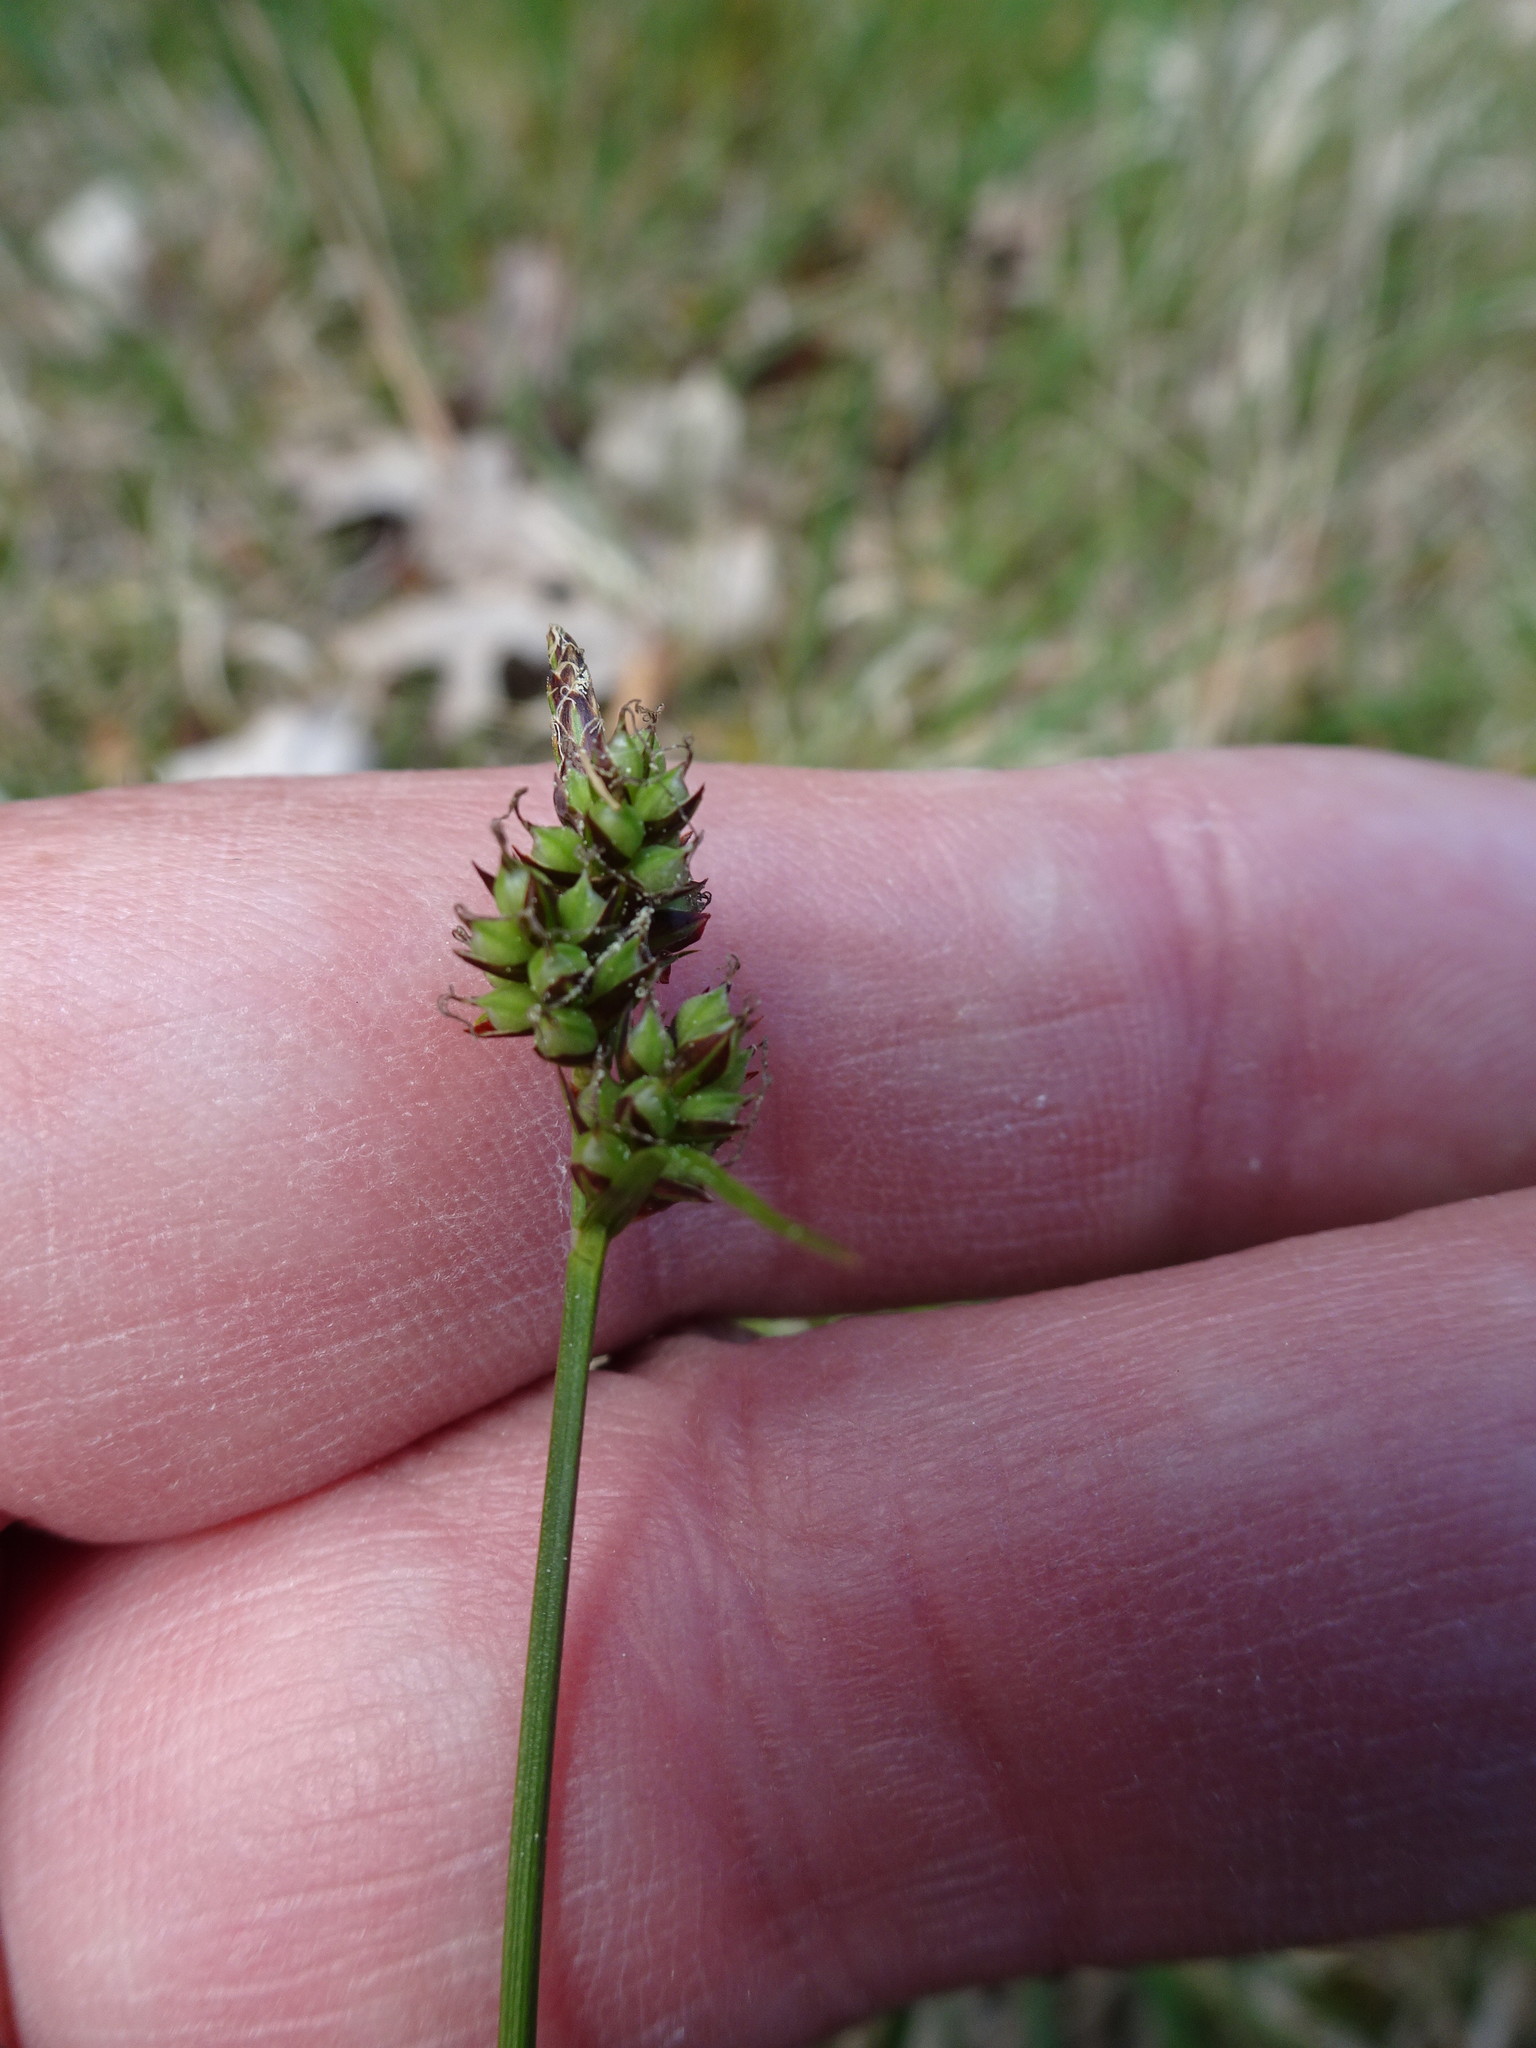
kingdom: Plantae
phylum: Tracheophyta
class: Liliopsida
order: Poales
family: Cyperaceae
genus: Carex
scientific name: Carex pilulifera
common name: Pill sedge
